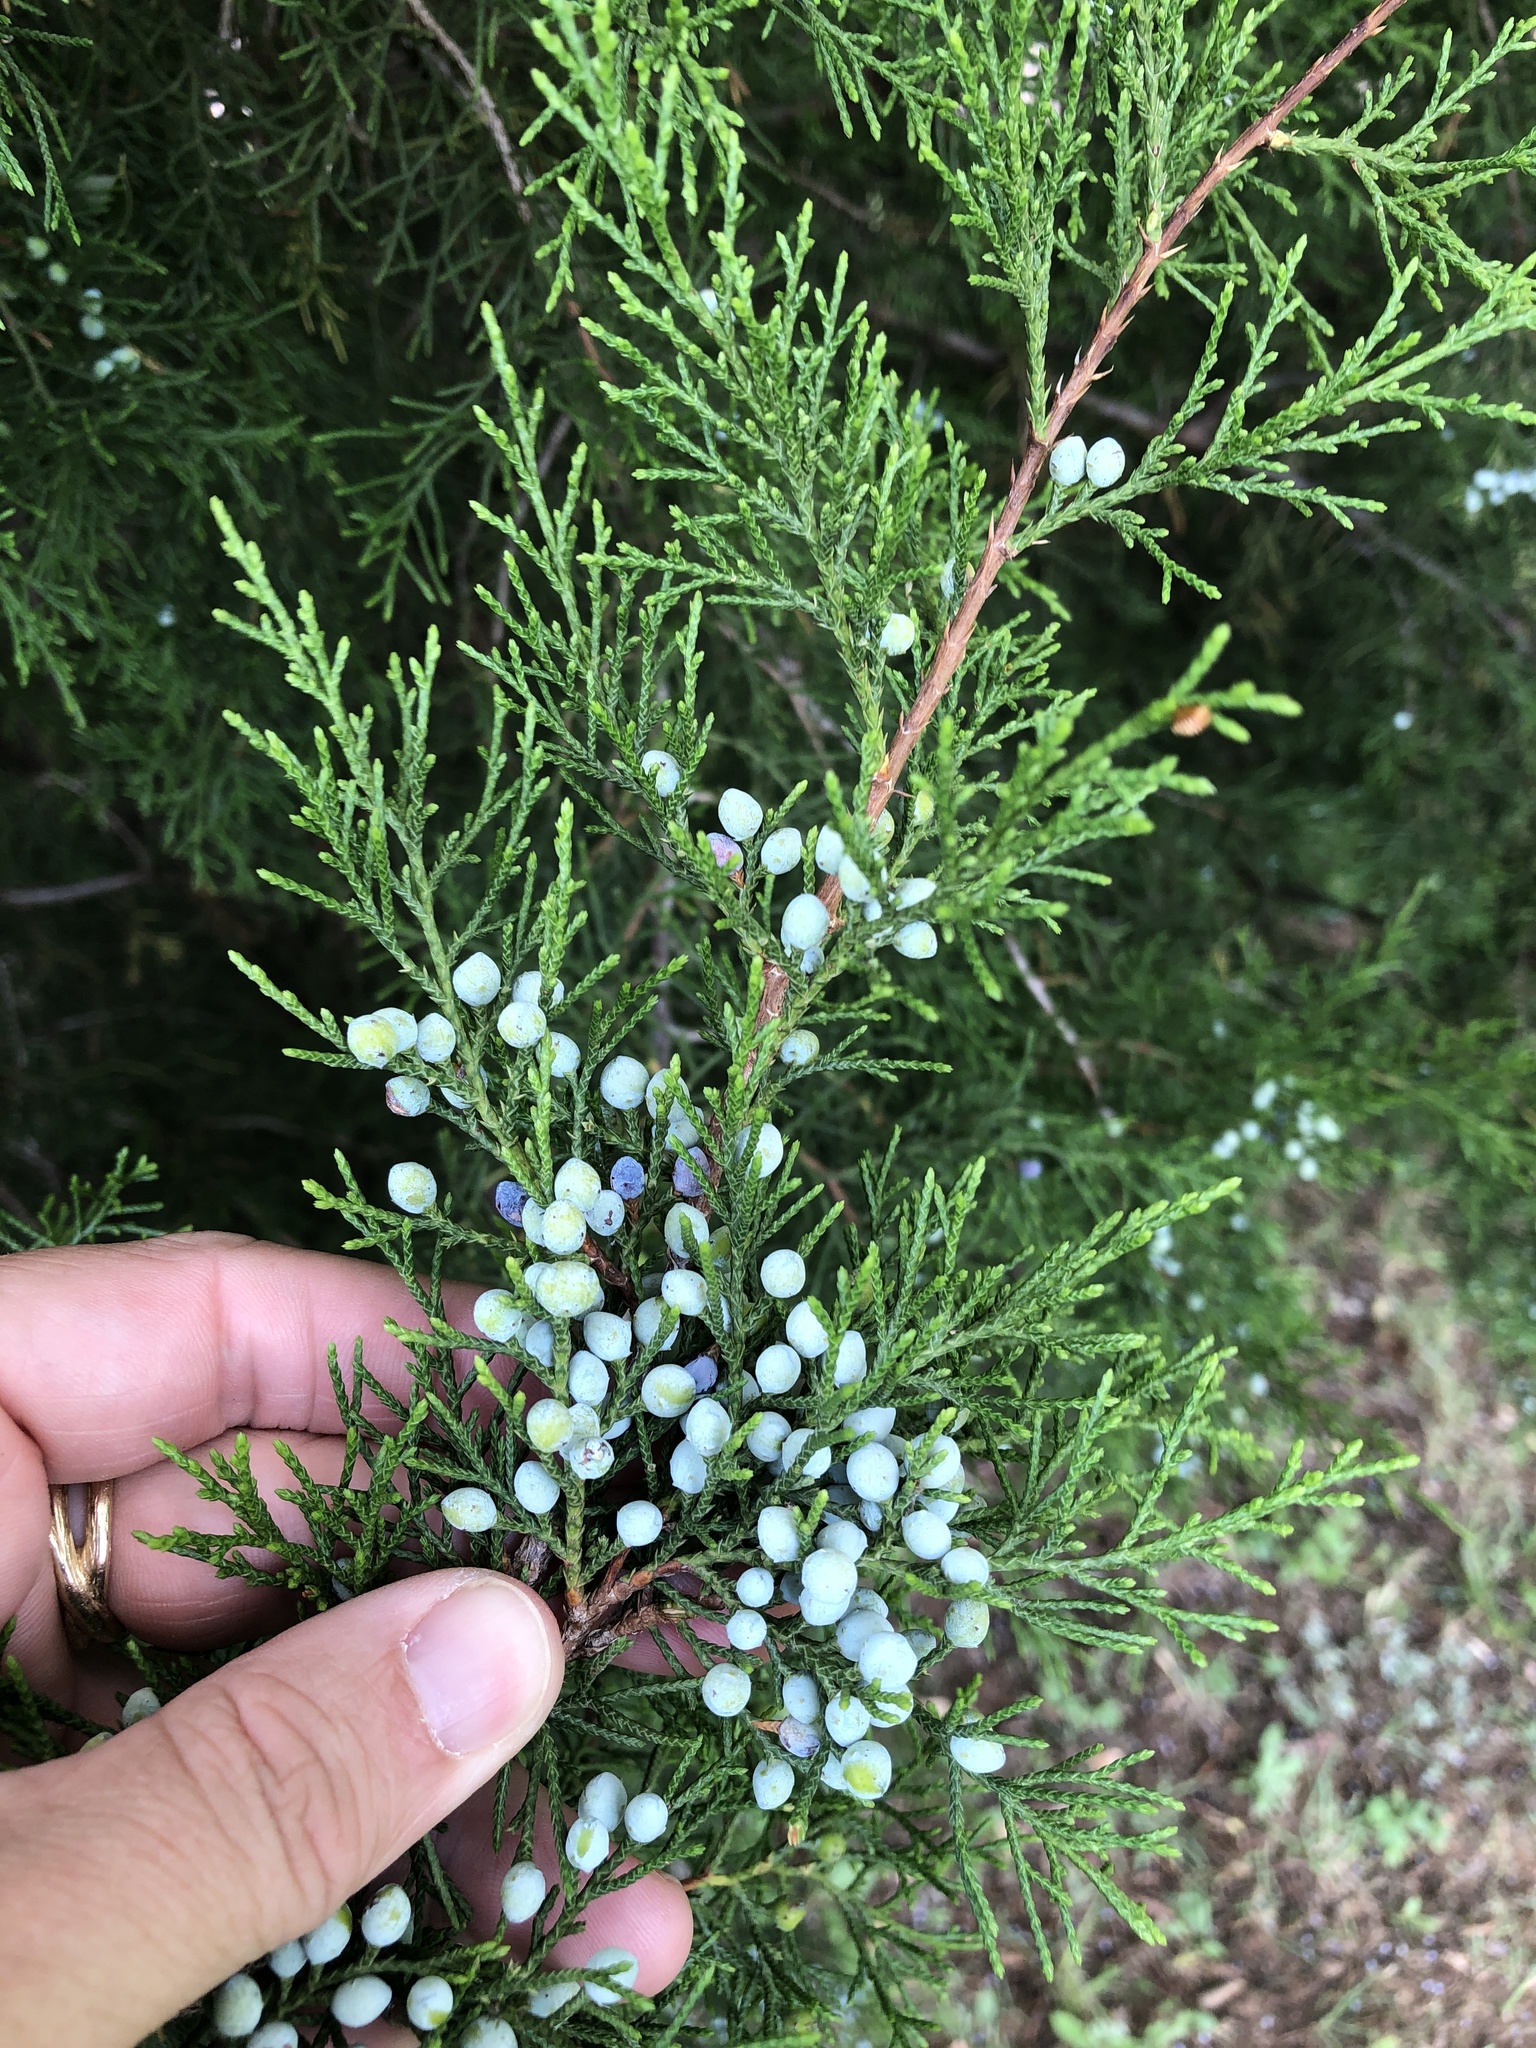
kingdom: Plantae
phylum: Tracheophyta
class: Pinopsida
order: Pinales
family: Cupressaceae
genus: Juniperus
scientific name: Juniperus virginiana
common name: Red juniper
